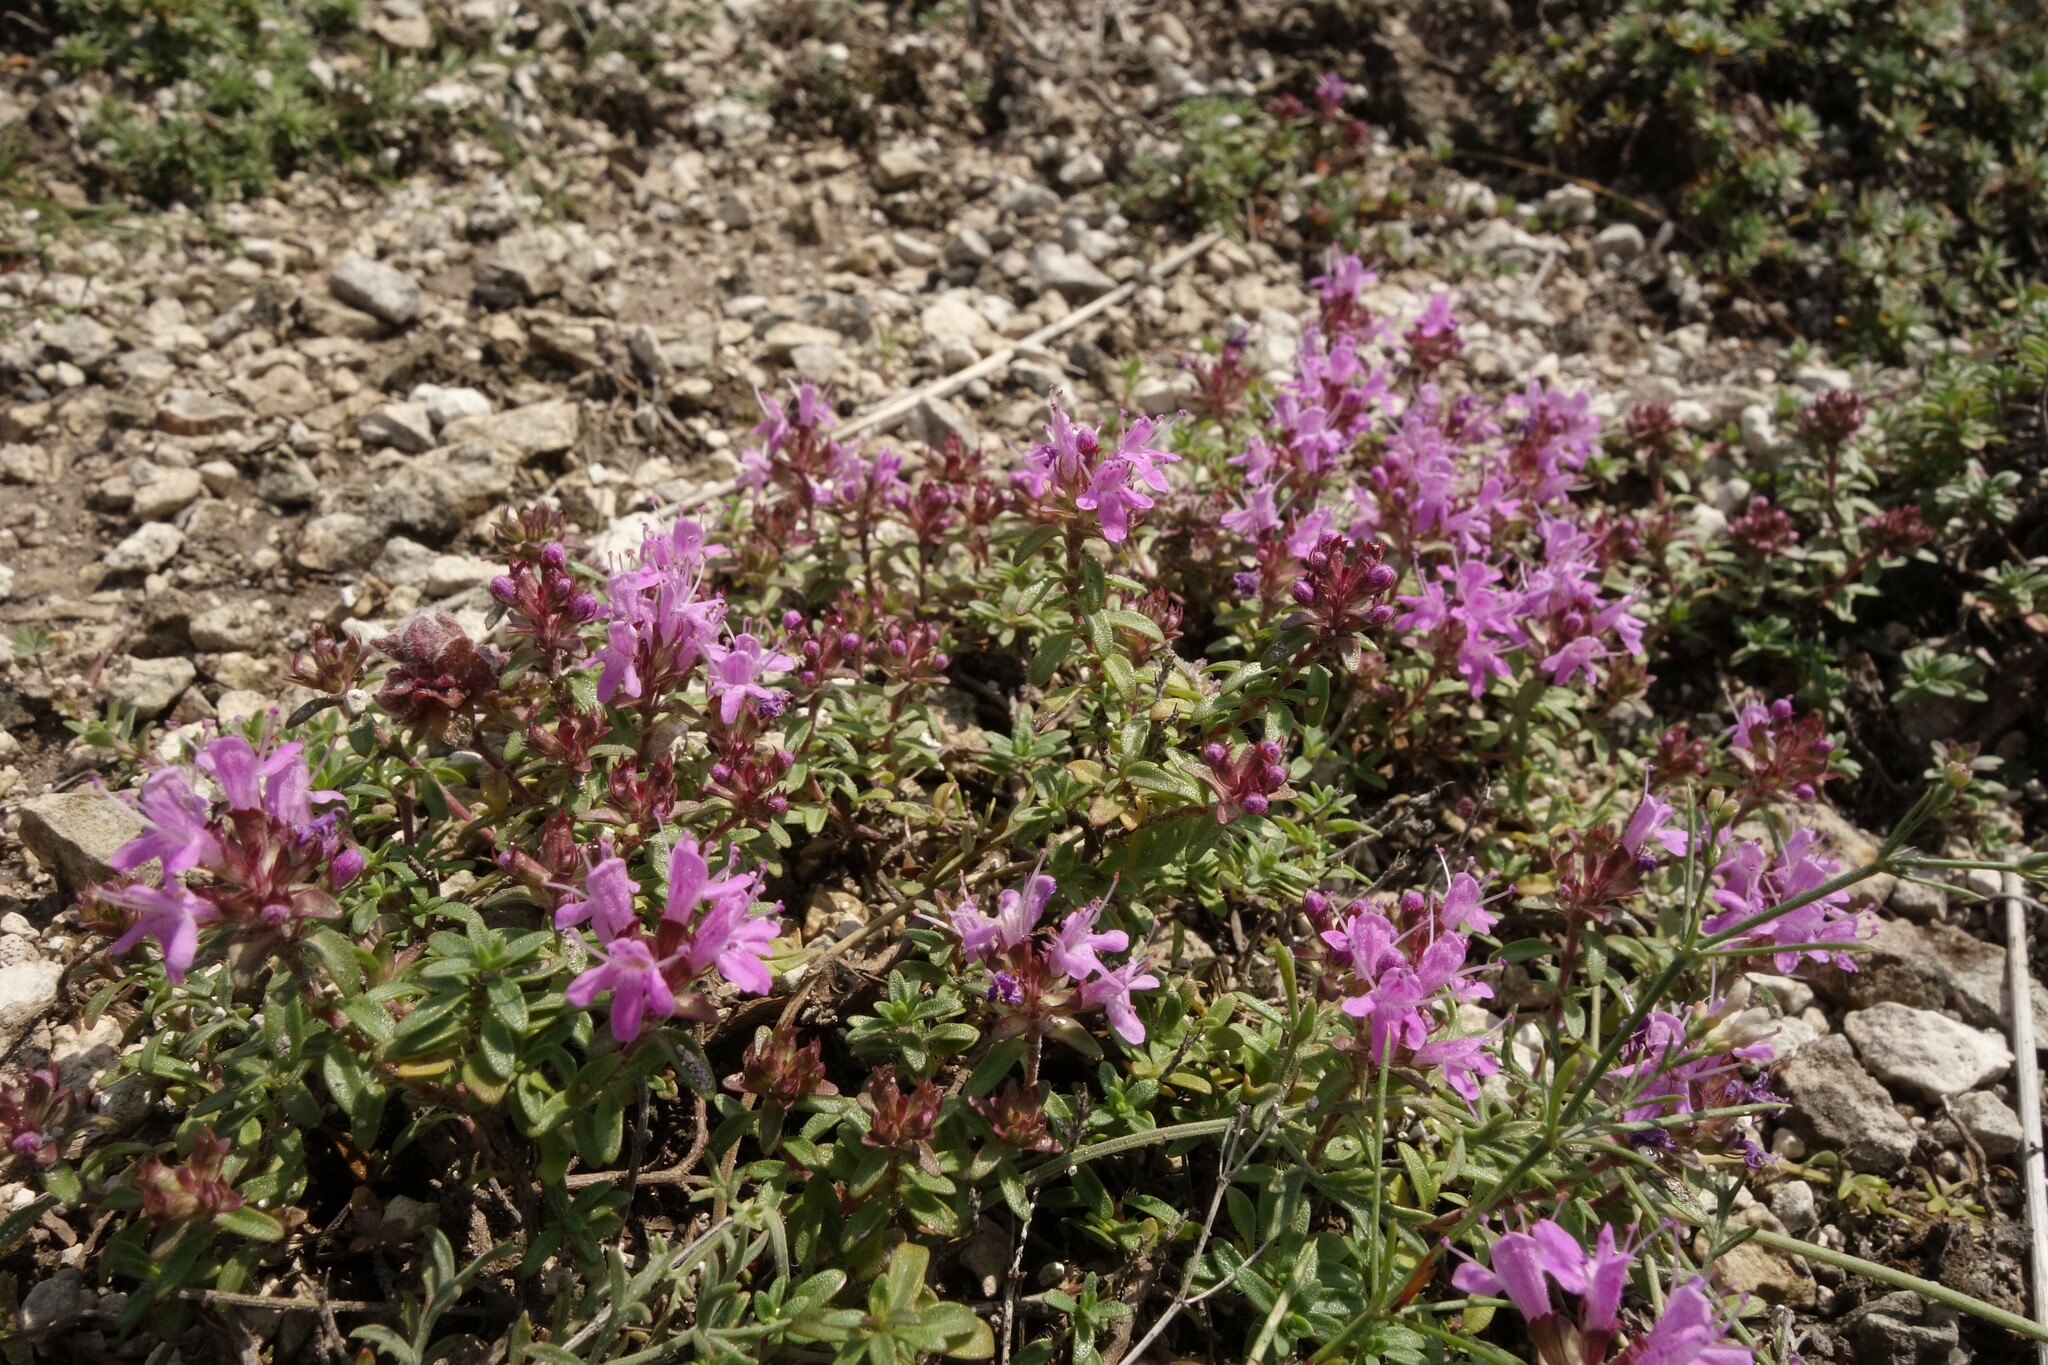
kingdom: Plantae
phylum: Tracheophyta
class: Magnoliopsida
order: Lamiales
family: Lamiaceae
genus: Thymus
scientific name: Thymus calcareus
